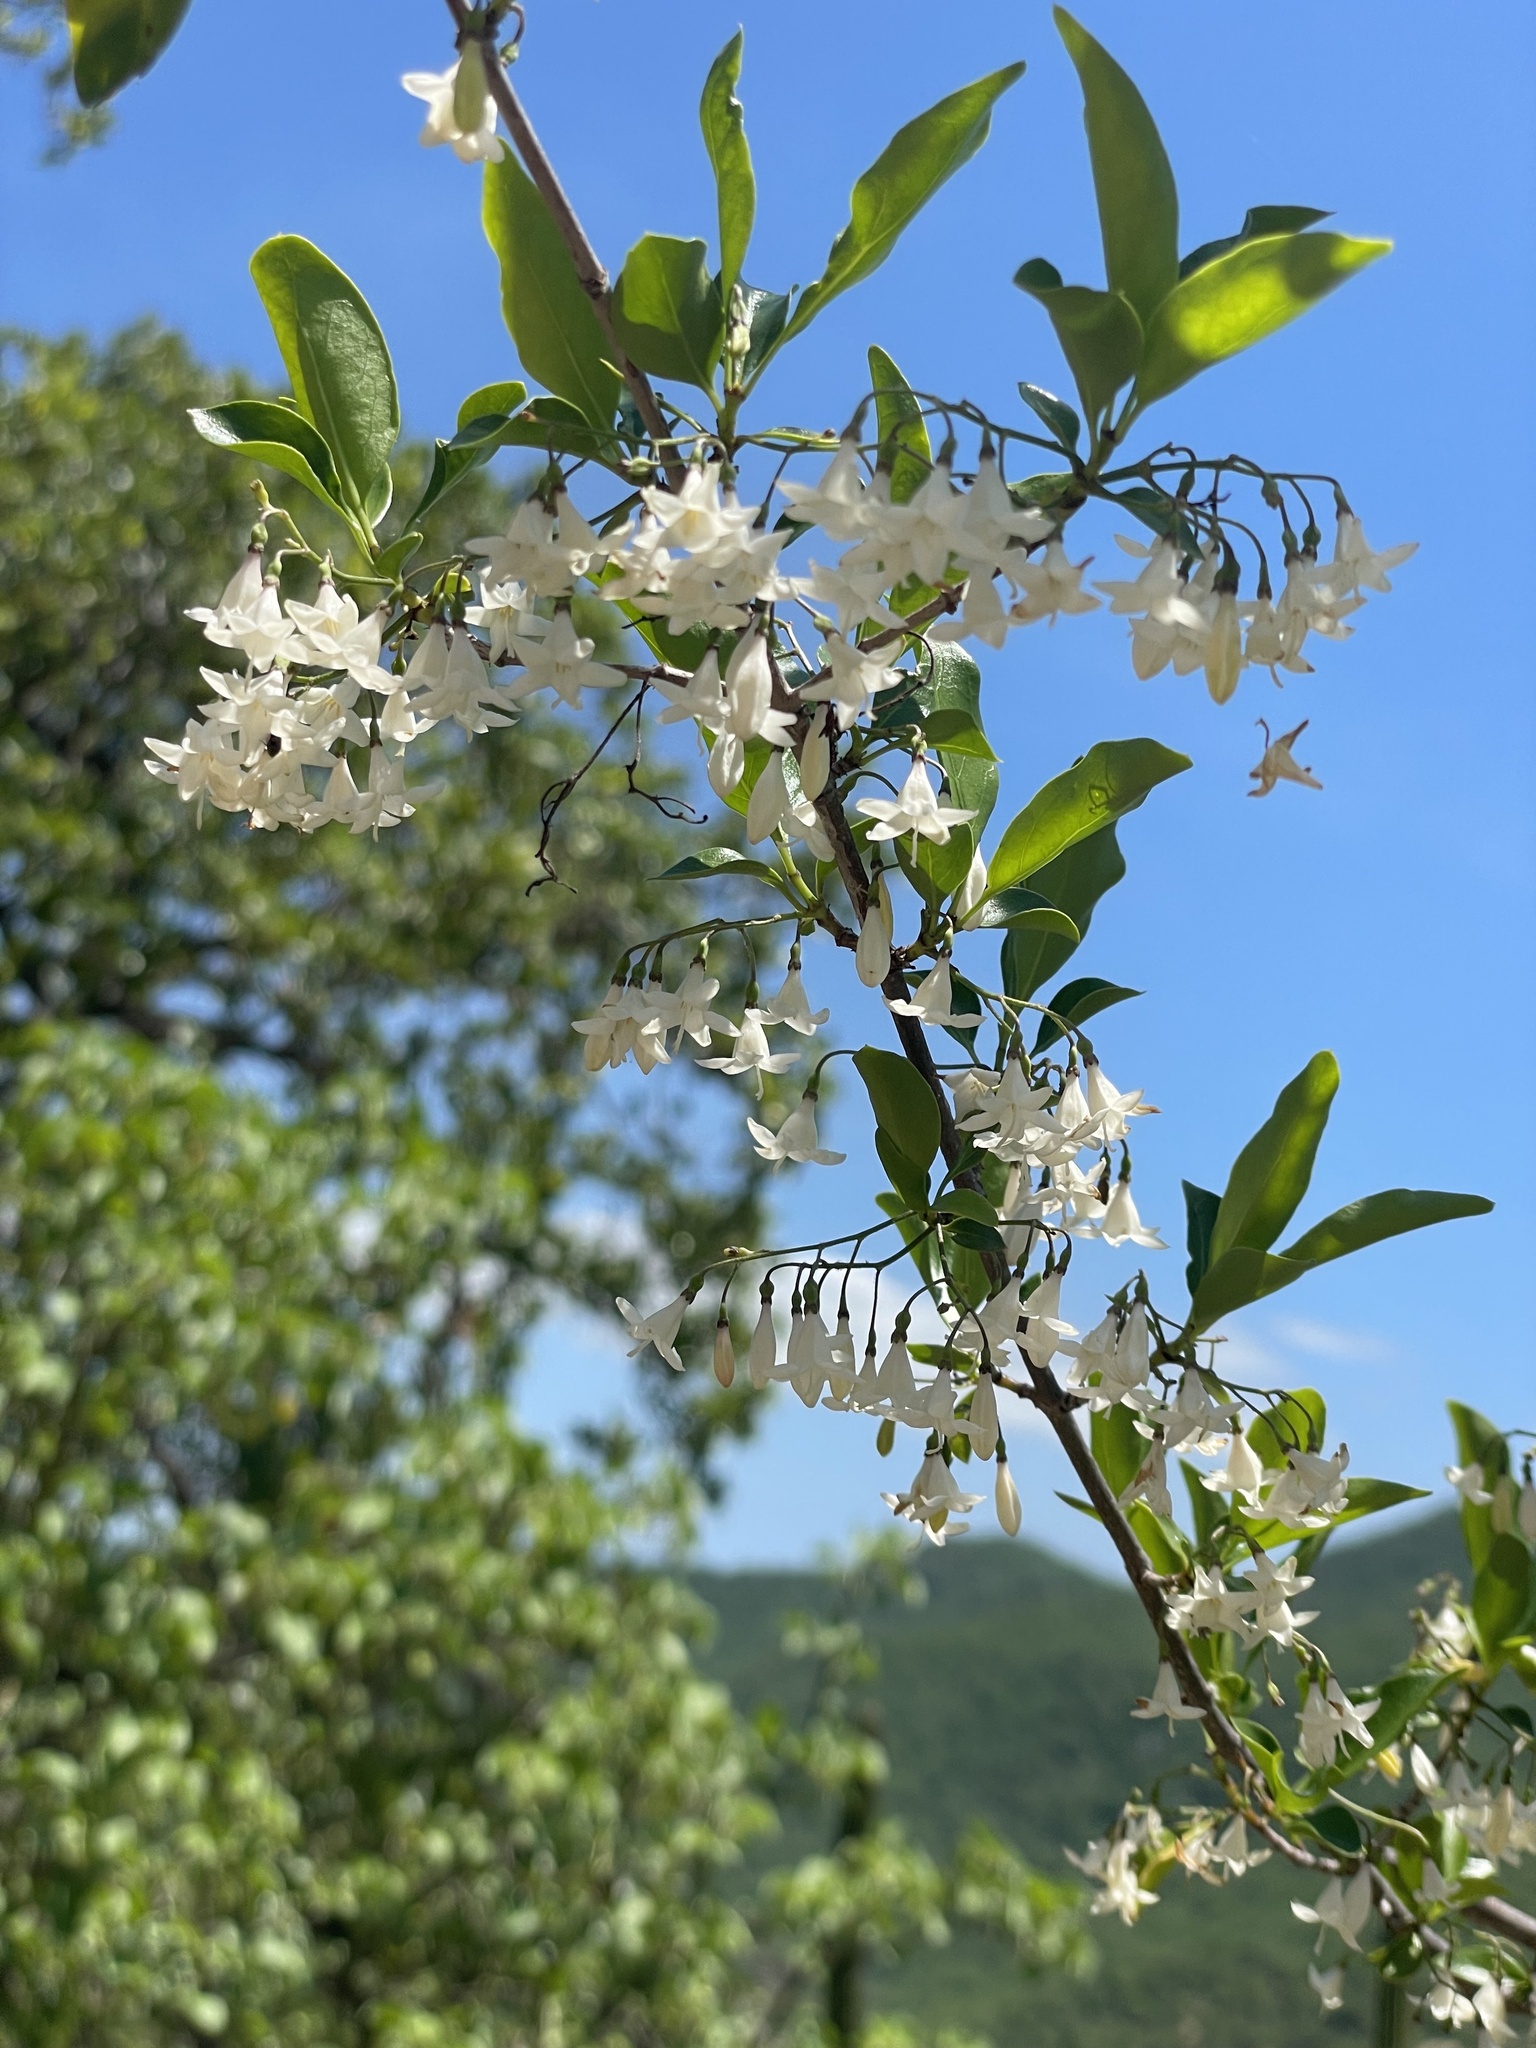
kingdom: Plantae
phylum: Tracheophyta
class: Magnoliopsida
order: Gentianales
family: Rubiaceae
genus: Chiococca
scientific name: Chiococca alba
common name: Snowberry
